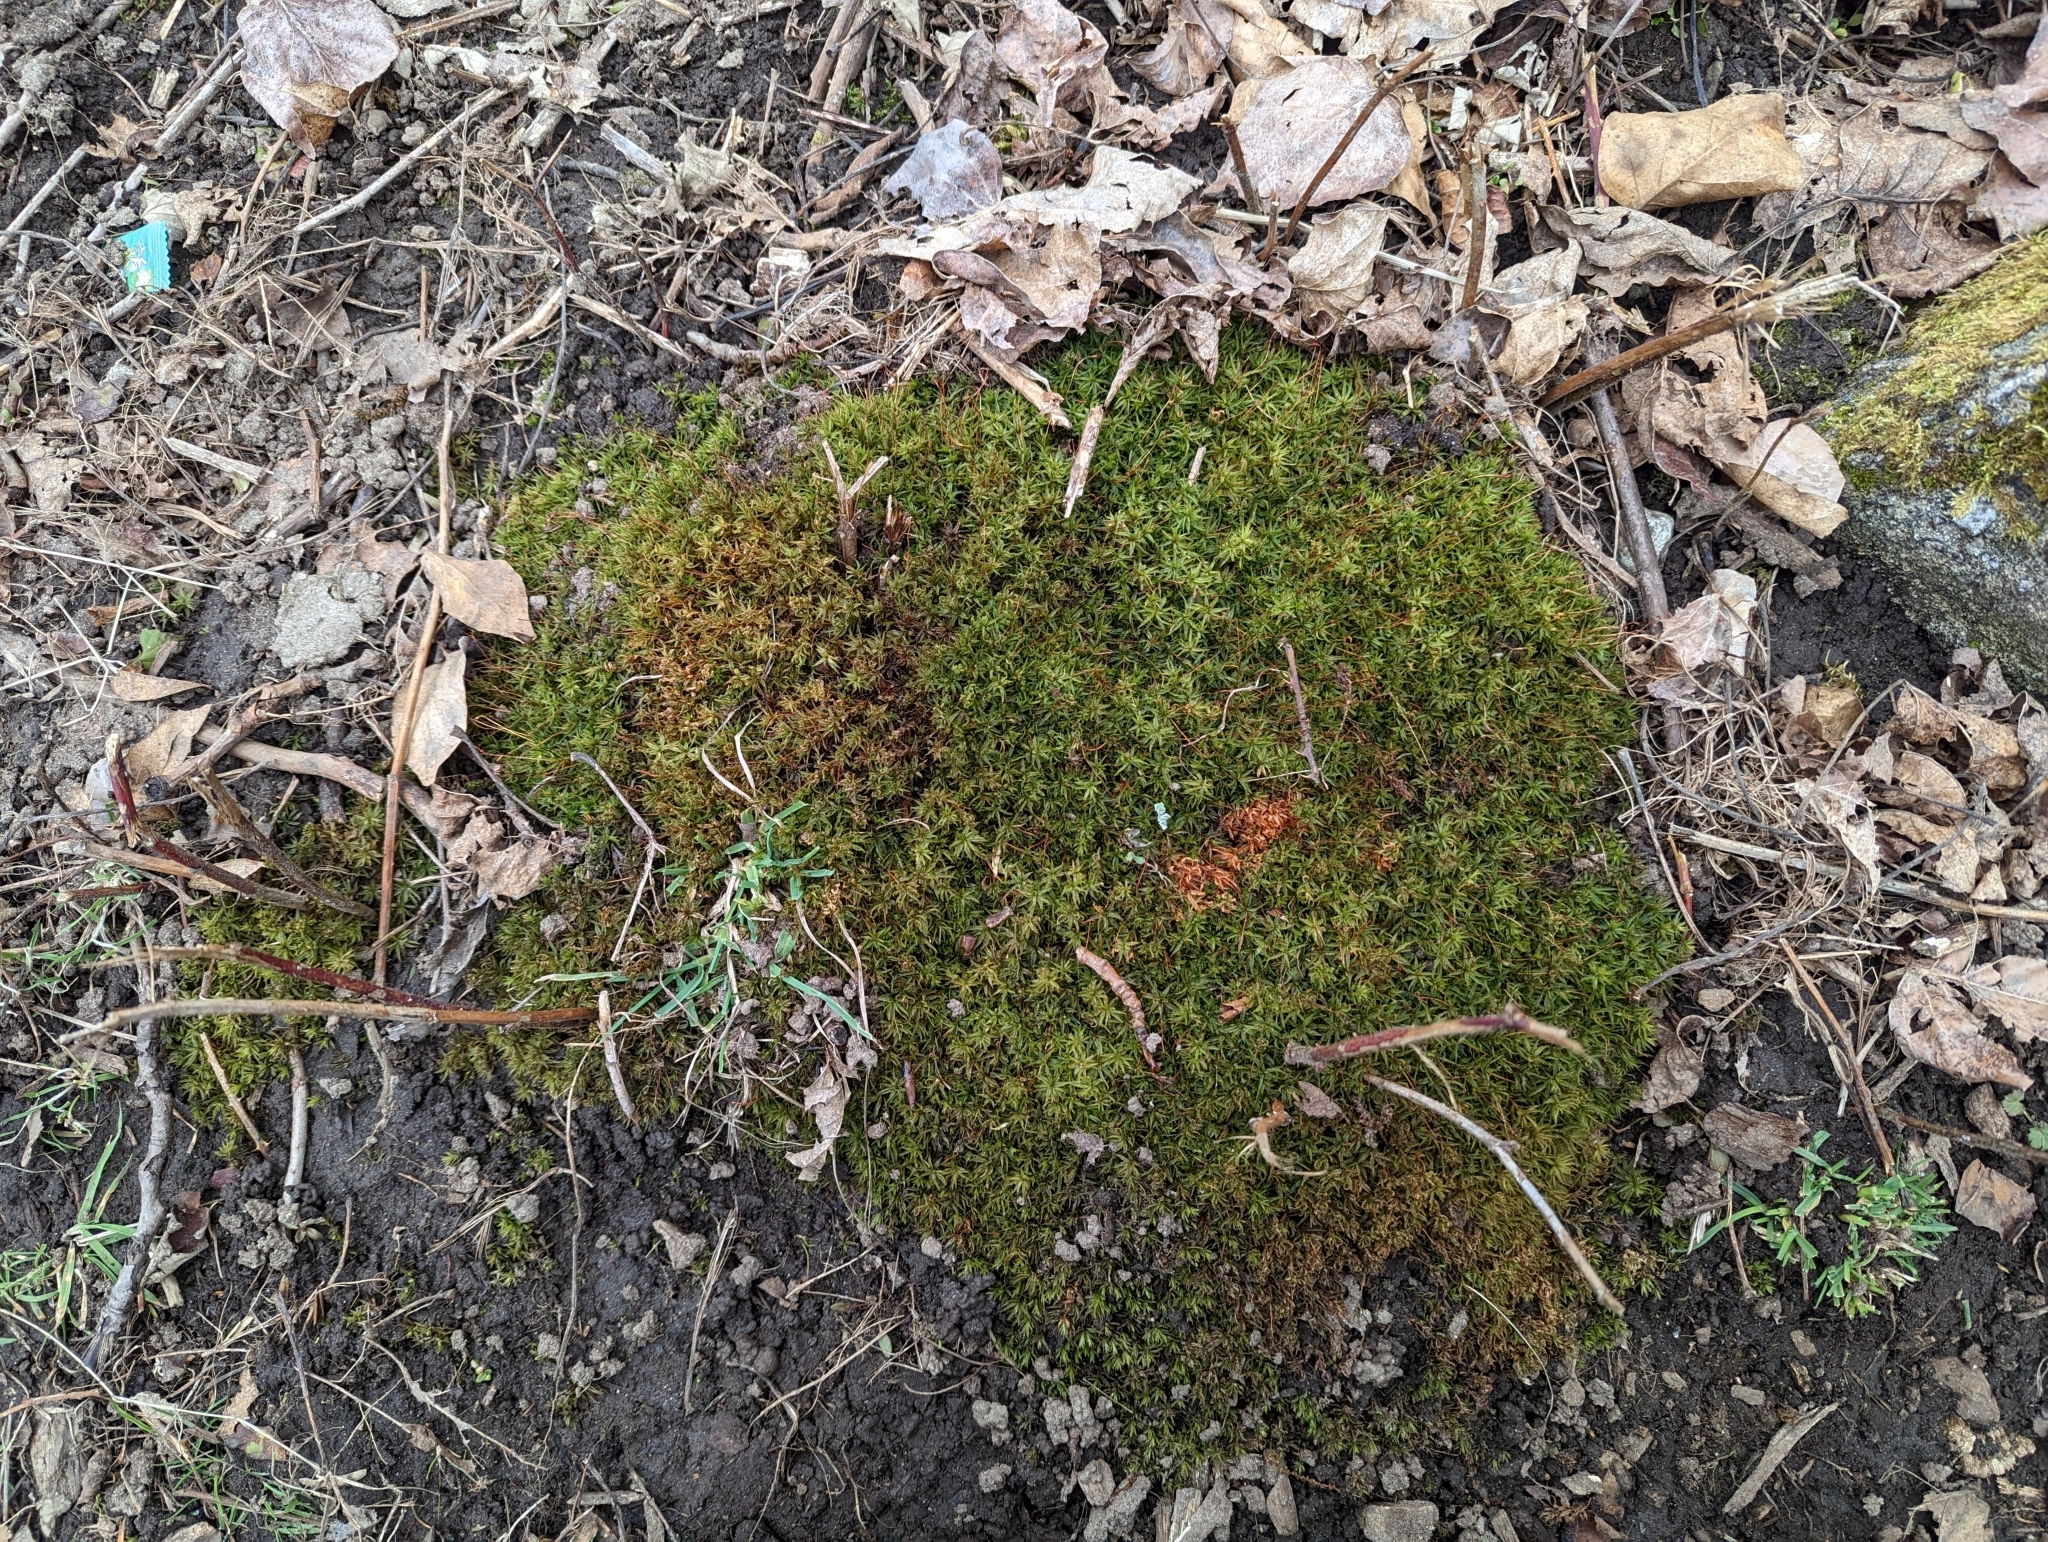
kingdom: Plantae
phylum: Bryophyta
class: Polytrichopsida
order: Polytrichales
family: Polytrichaceae
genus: Atrichum
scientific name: Atrichum undulatum
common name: Common smoothcap
